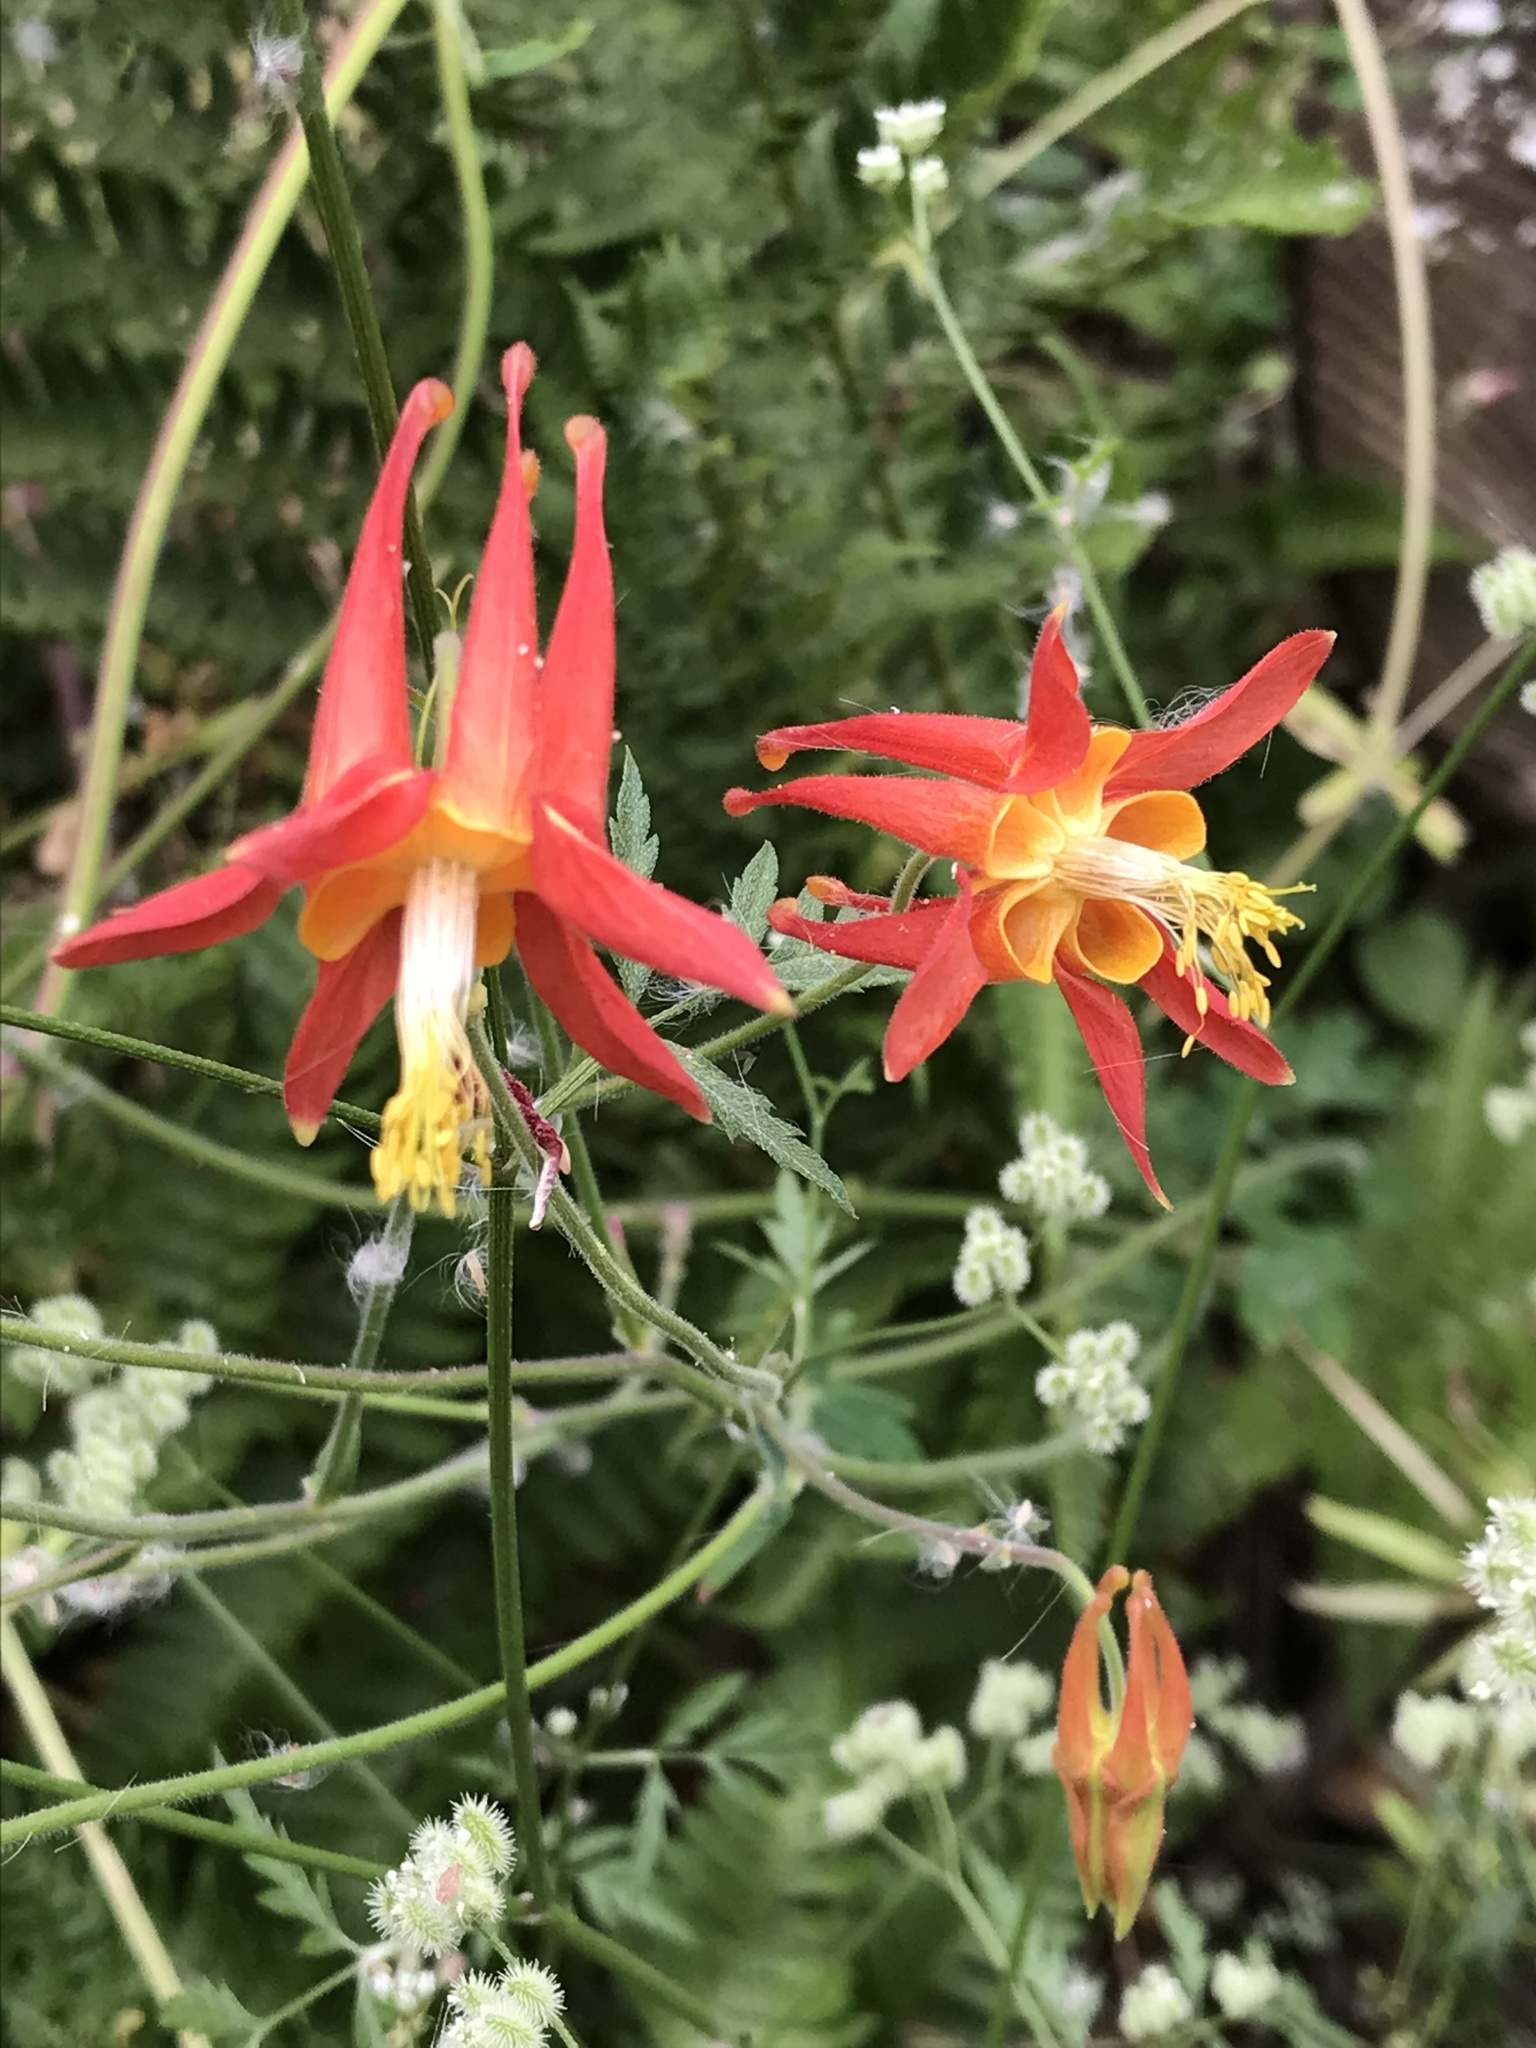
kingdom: Plantae
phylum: Tracheophyta
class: Magnoliopsida
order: Ranunculales
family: Ranunculaceae
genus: Aquilegia
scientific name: Aquilegia formosa
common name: Sitka columbine
